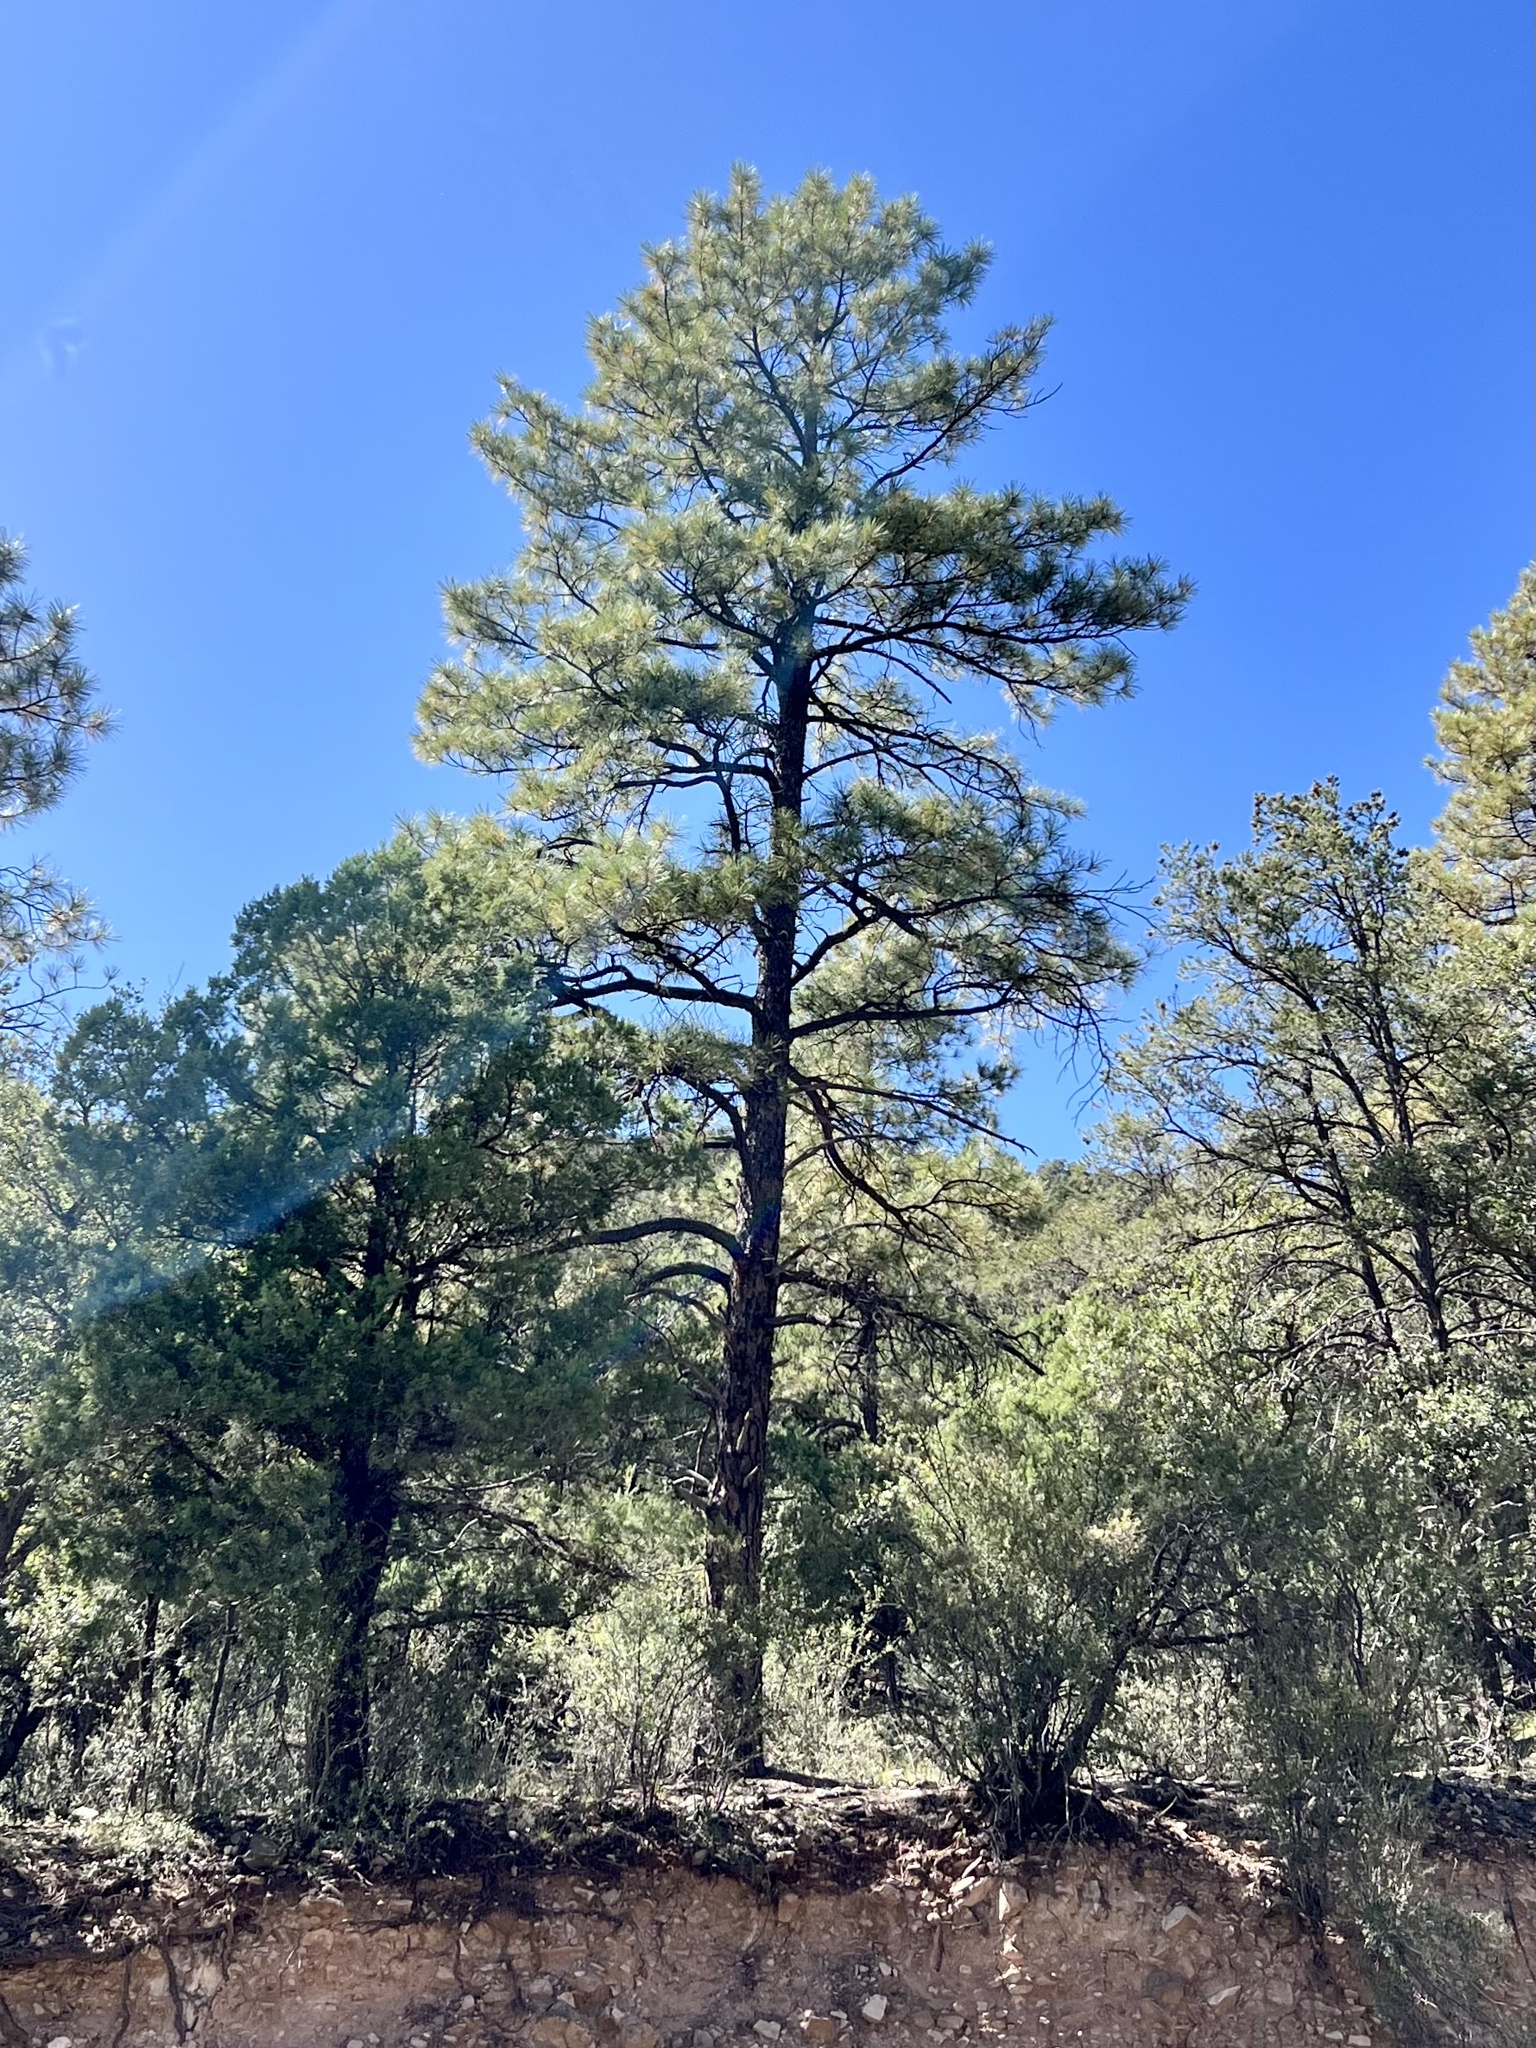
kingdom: Plantae
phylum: Tracheophyta
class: Pinopsida
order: Pinales
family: Pinaceae
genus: Pinus
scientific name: Pinus ponderosa
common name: Western yellow-pine
